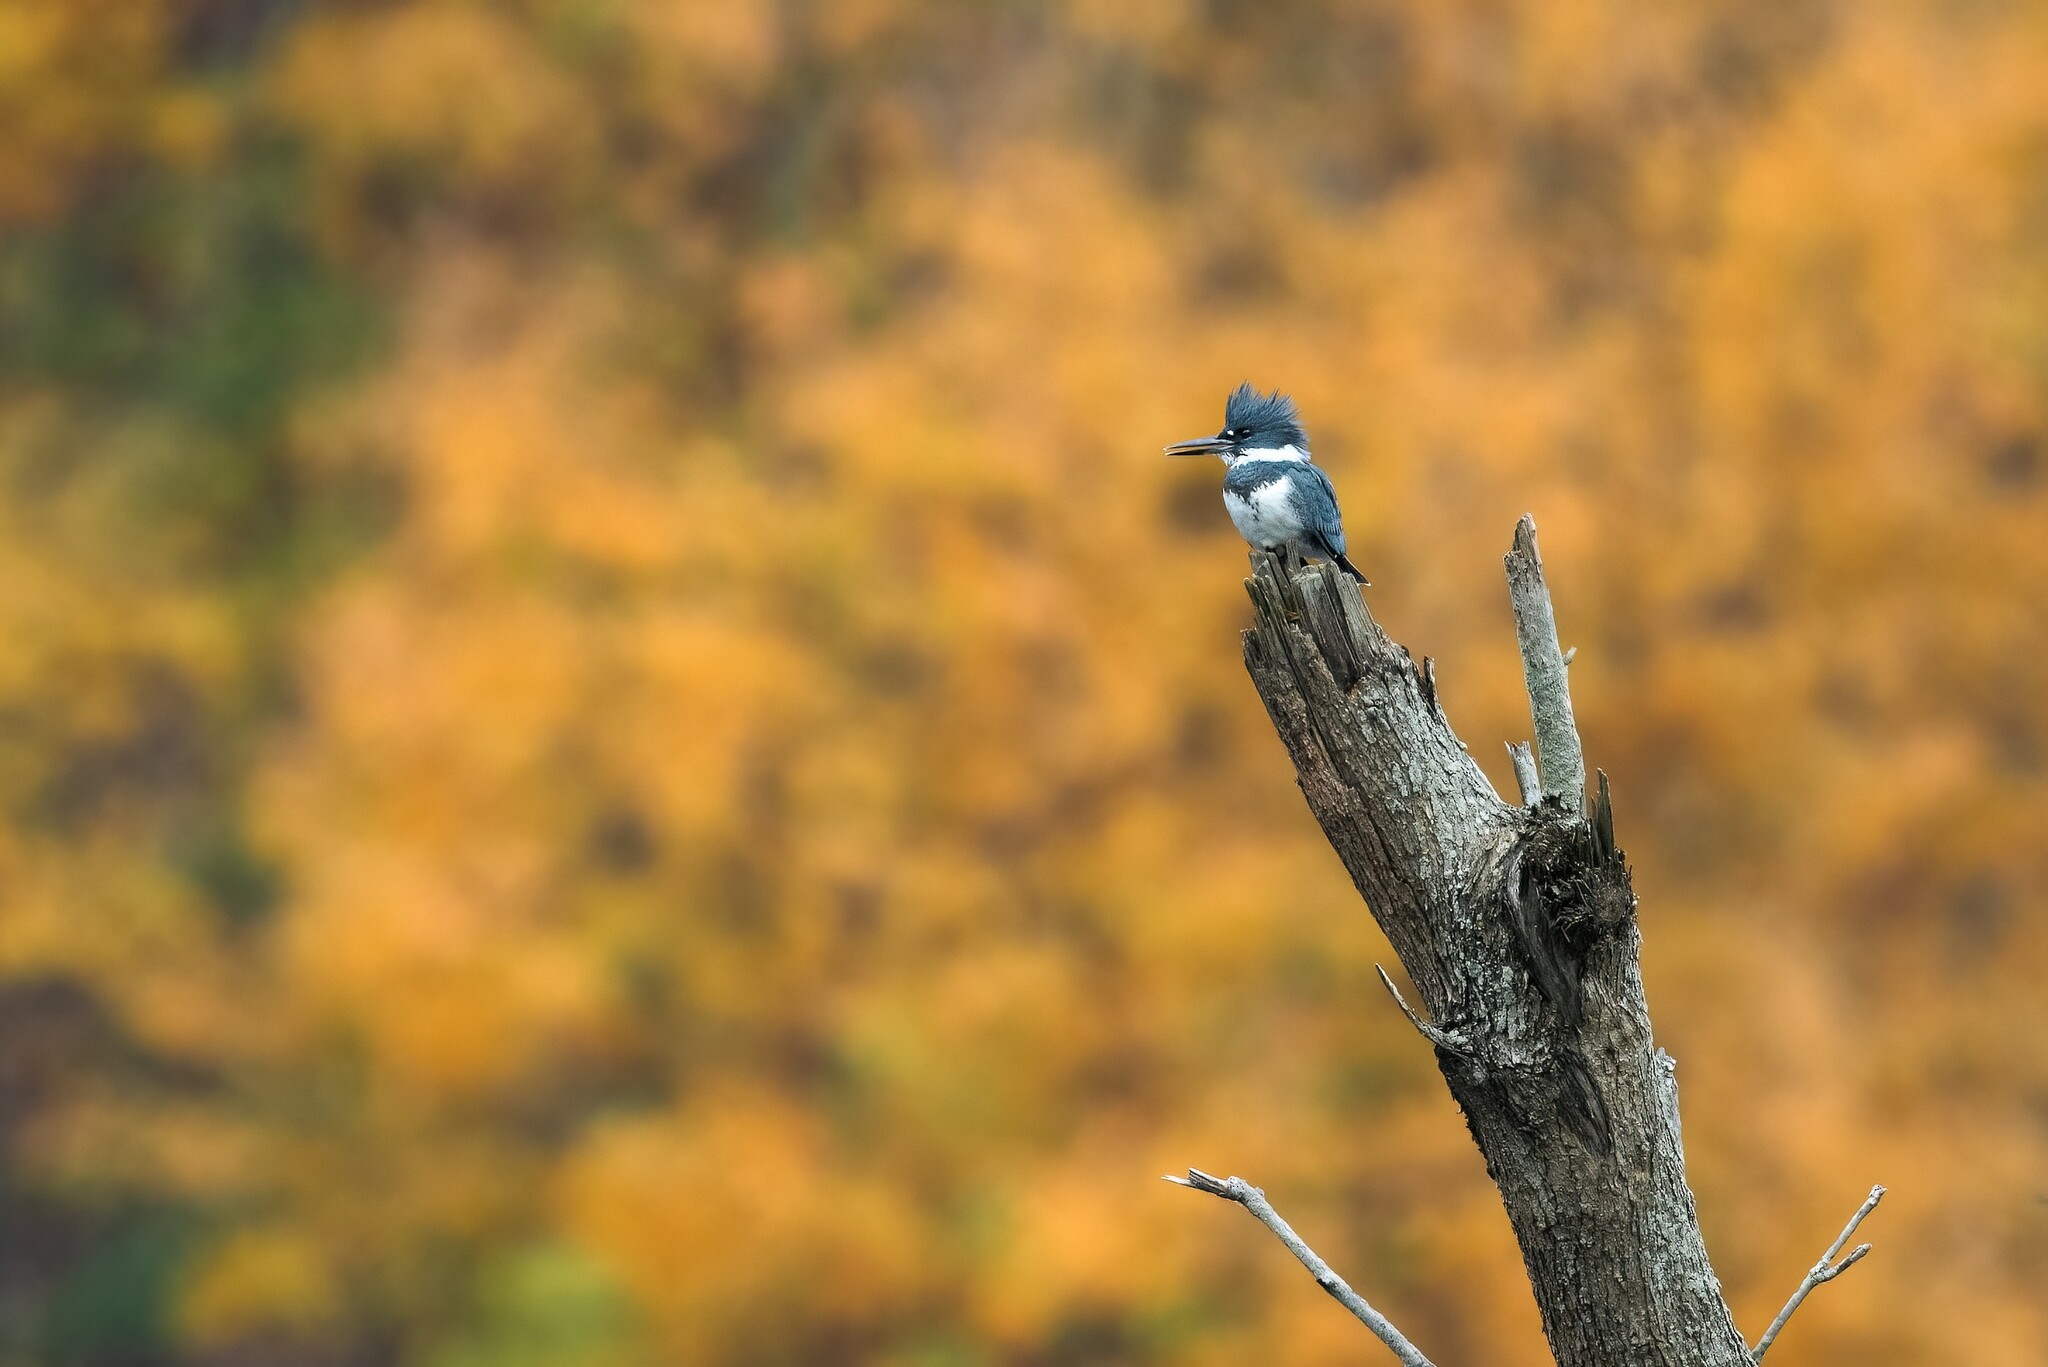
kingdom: Animalia
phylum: Chordata
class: Aves
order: Coraciiformes
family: Alcedinidae
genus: Megaceryle
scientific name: Megaceryle alcyon
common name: Belted kingfisher
